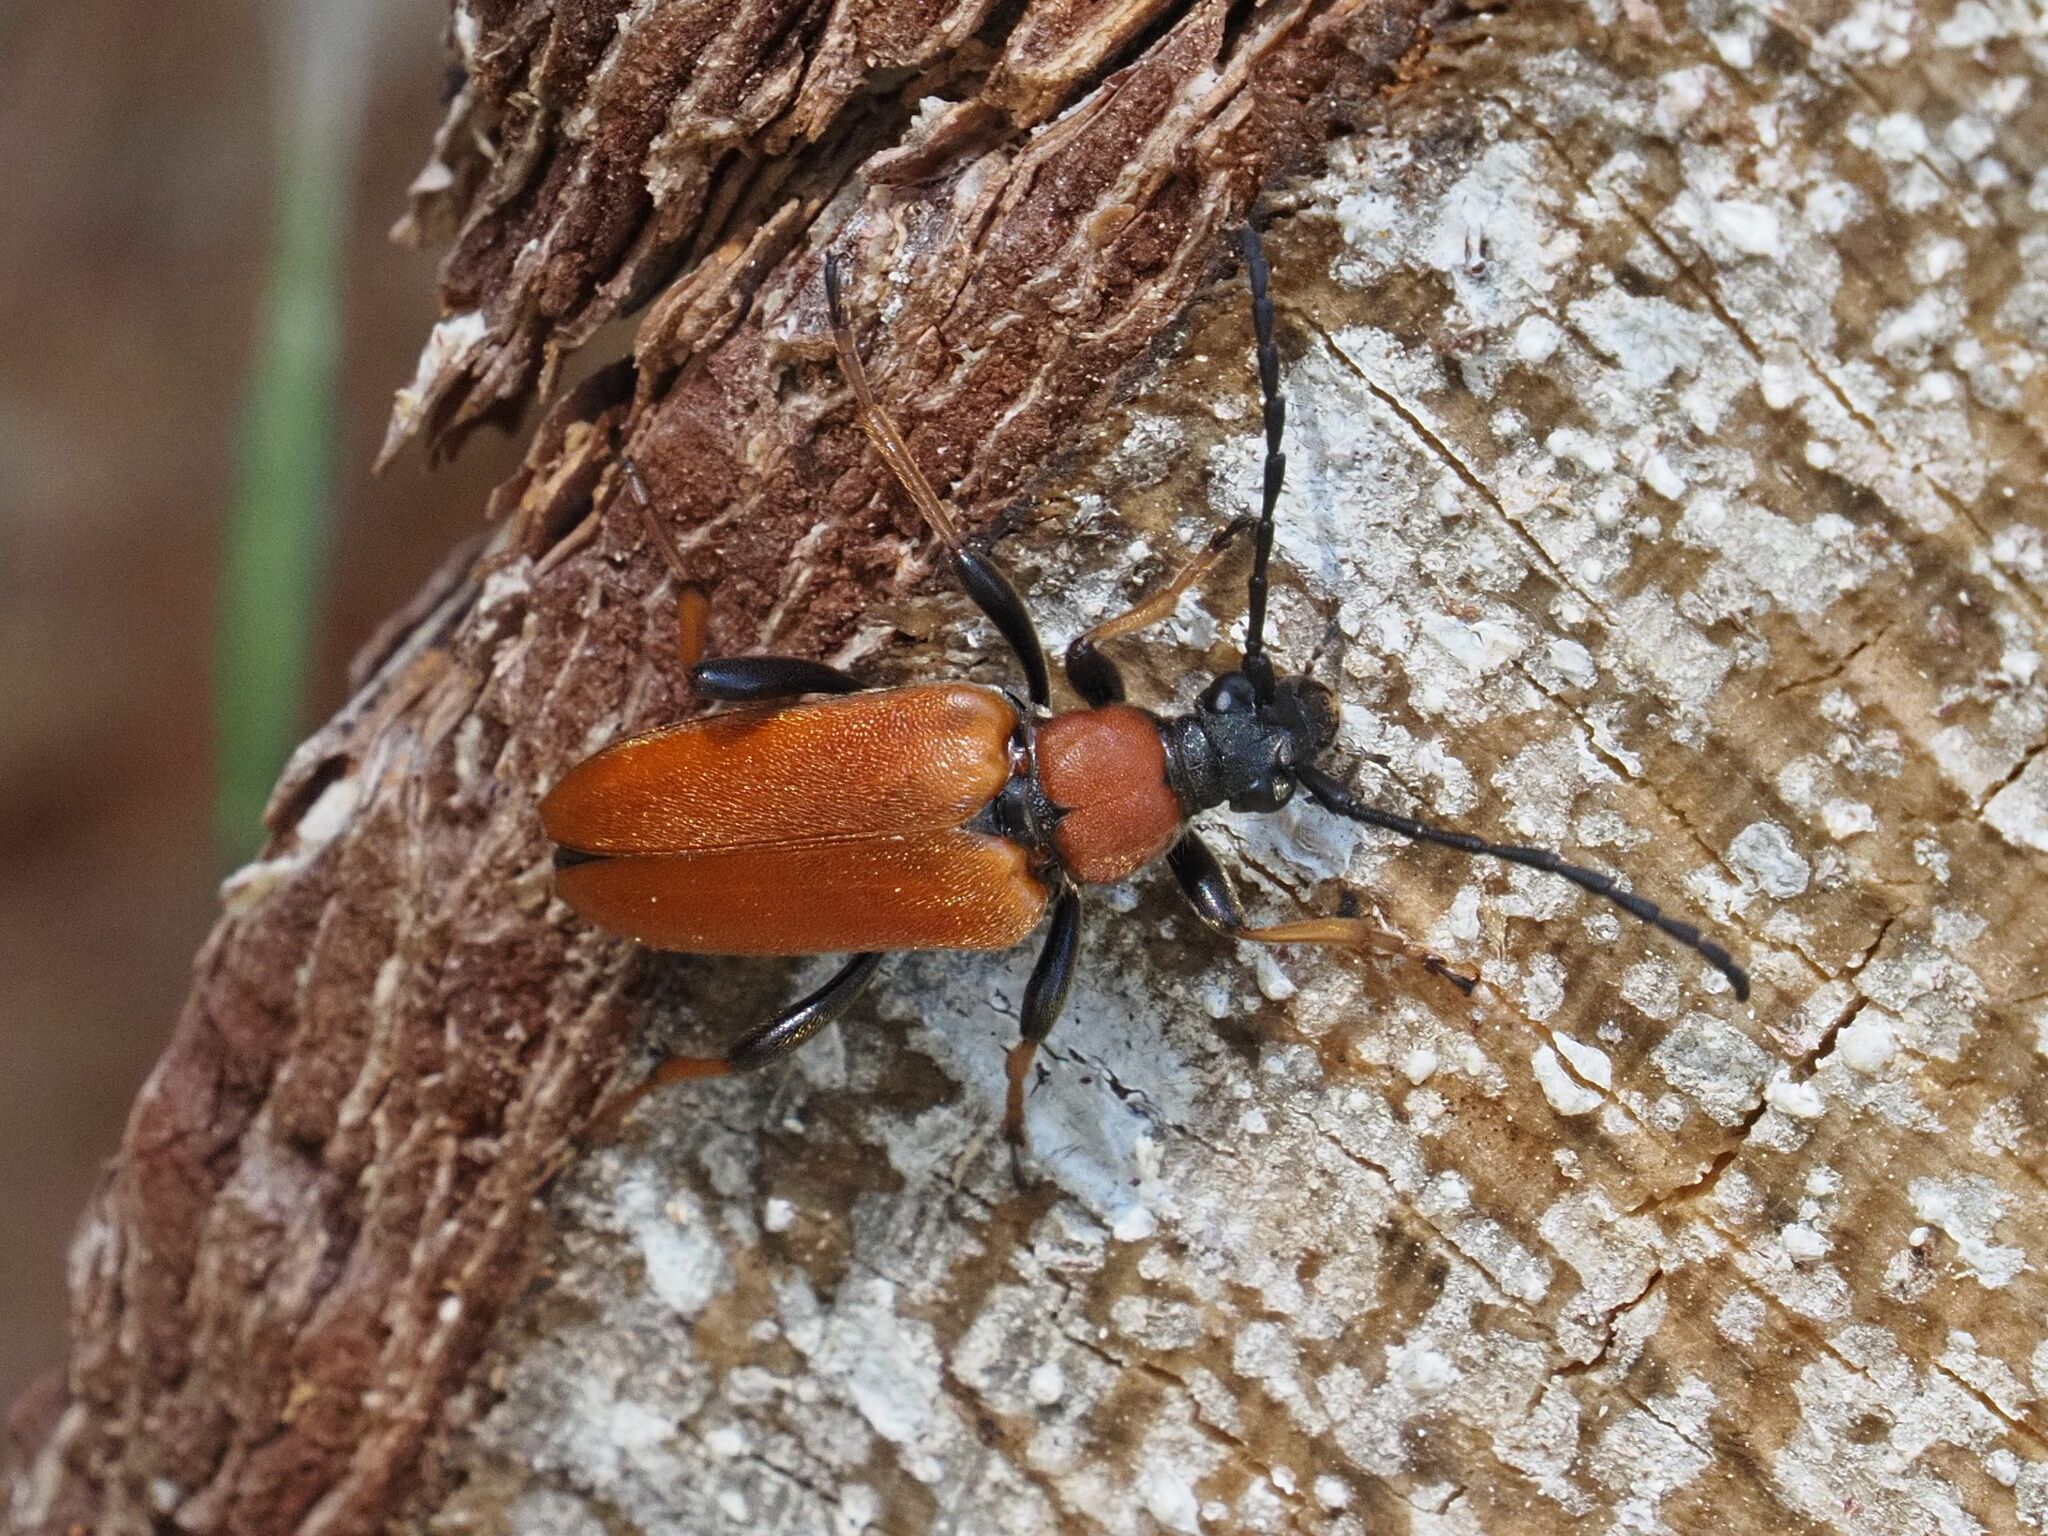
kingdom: Animalia
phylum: Arthropoda
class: Insecta
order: Coleoptera
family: Cerambycidae
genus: Stictoleptura
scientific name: Stictoleptura rubra
